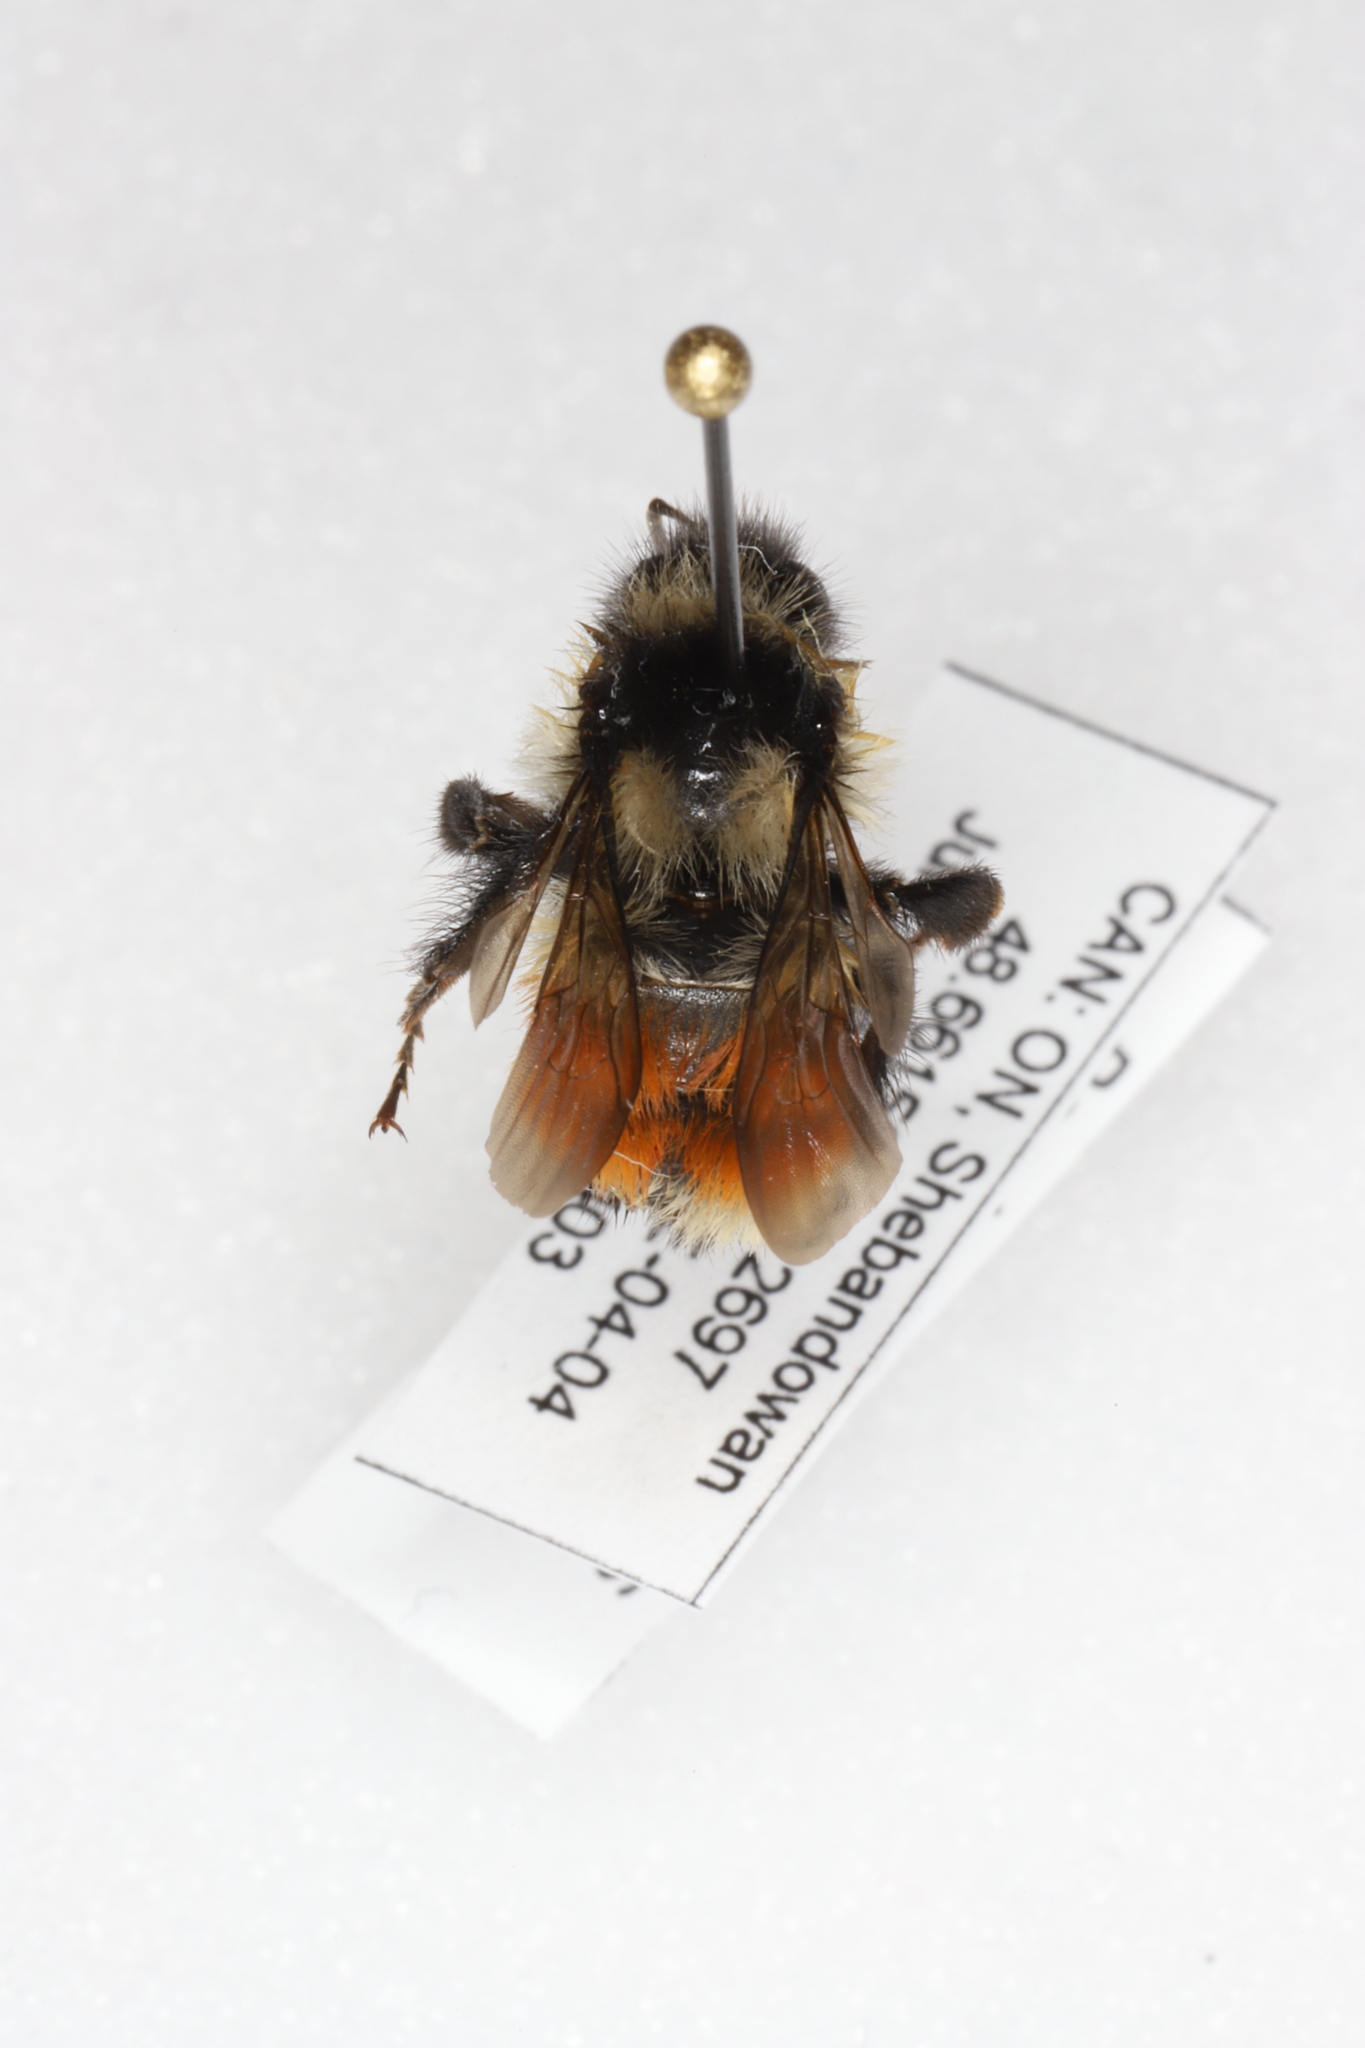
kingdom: Animalia
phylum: Arthropoda
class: Insecta
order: Hymenoptera
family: Apidae
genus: Bombus
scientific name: Bombus ternarius
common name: Tri-colored bumble bee
